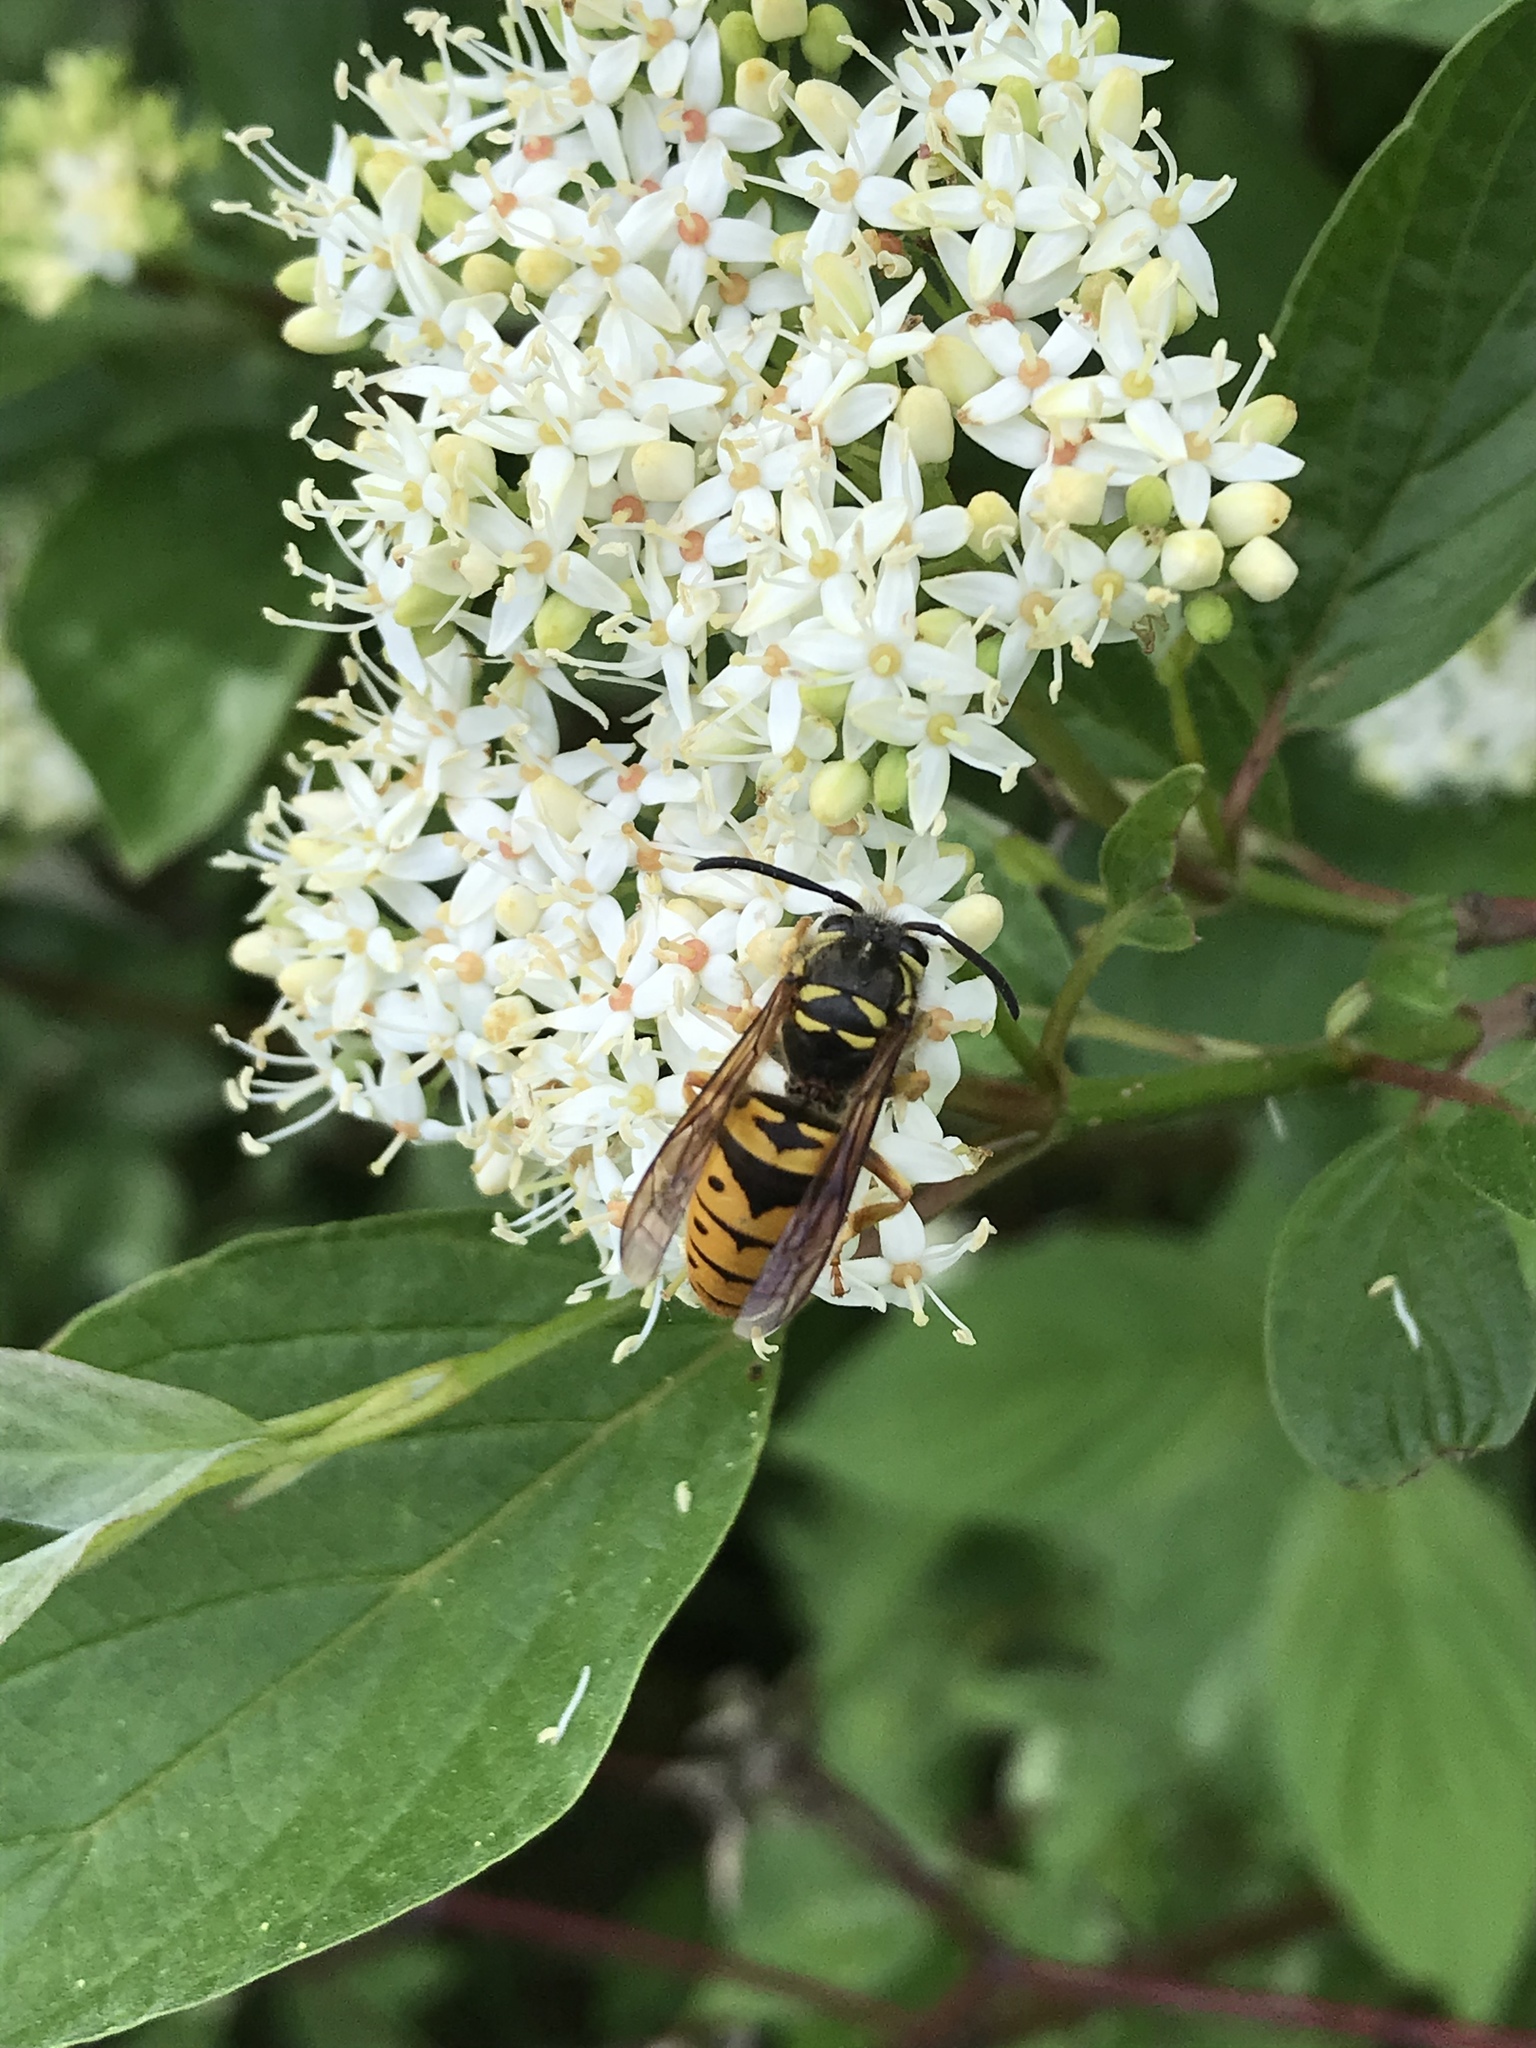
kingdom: Animalia
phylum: Arthropoda
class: Insecta
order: Hymenoptera
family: Vespidae
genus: Vespula
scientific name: Vespula maculifrons
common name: Eastern yellowjacket
